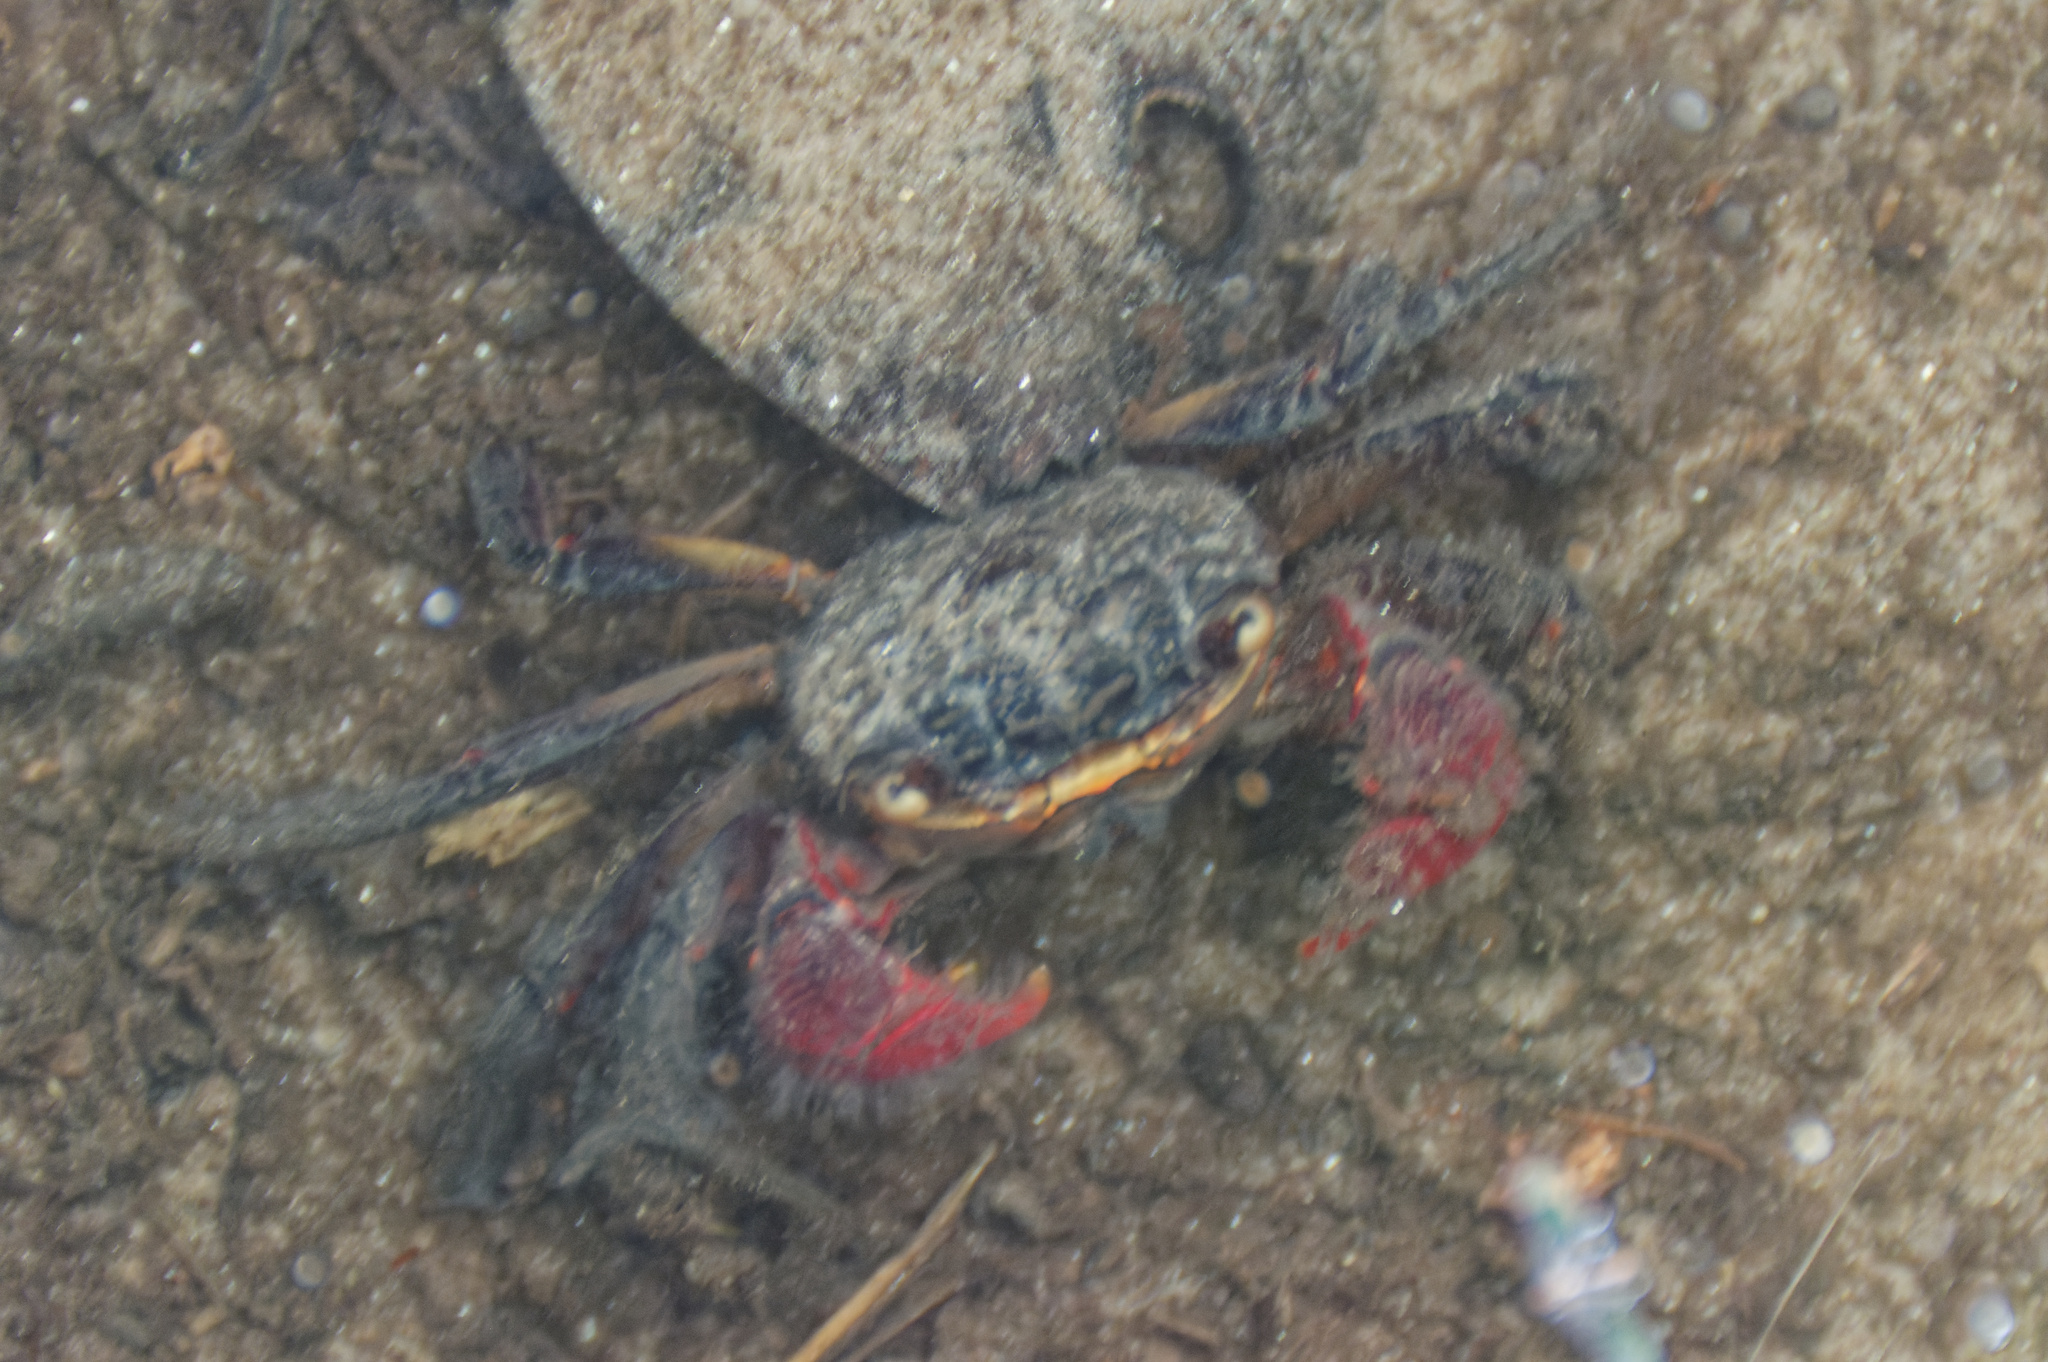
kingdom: Animalia
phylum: Arthropoda
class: Malacostraca
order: Decapoda
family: Sesarmidae
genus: Neosarmatium
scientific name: Neosarmatium fourmanoiri
